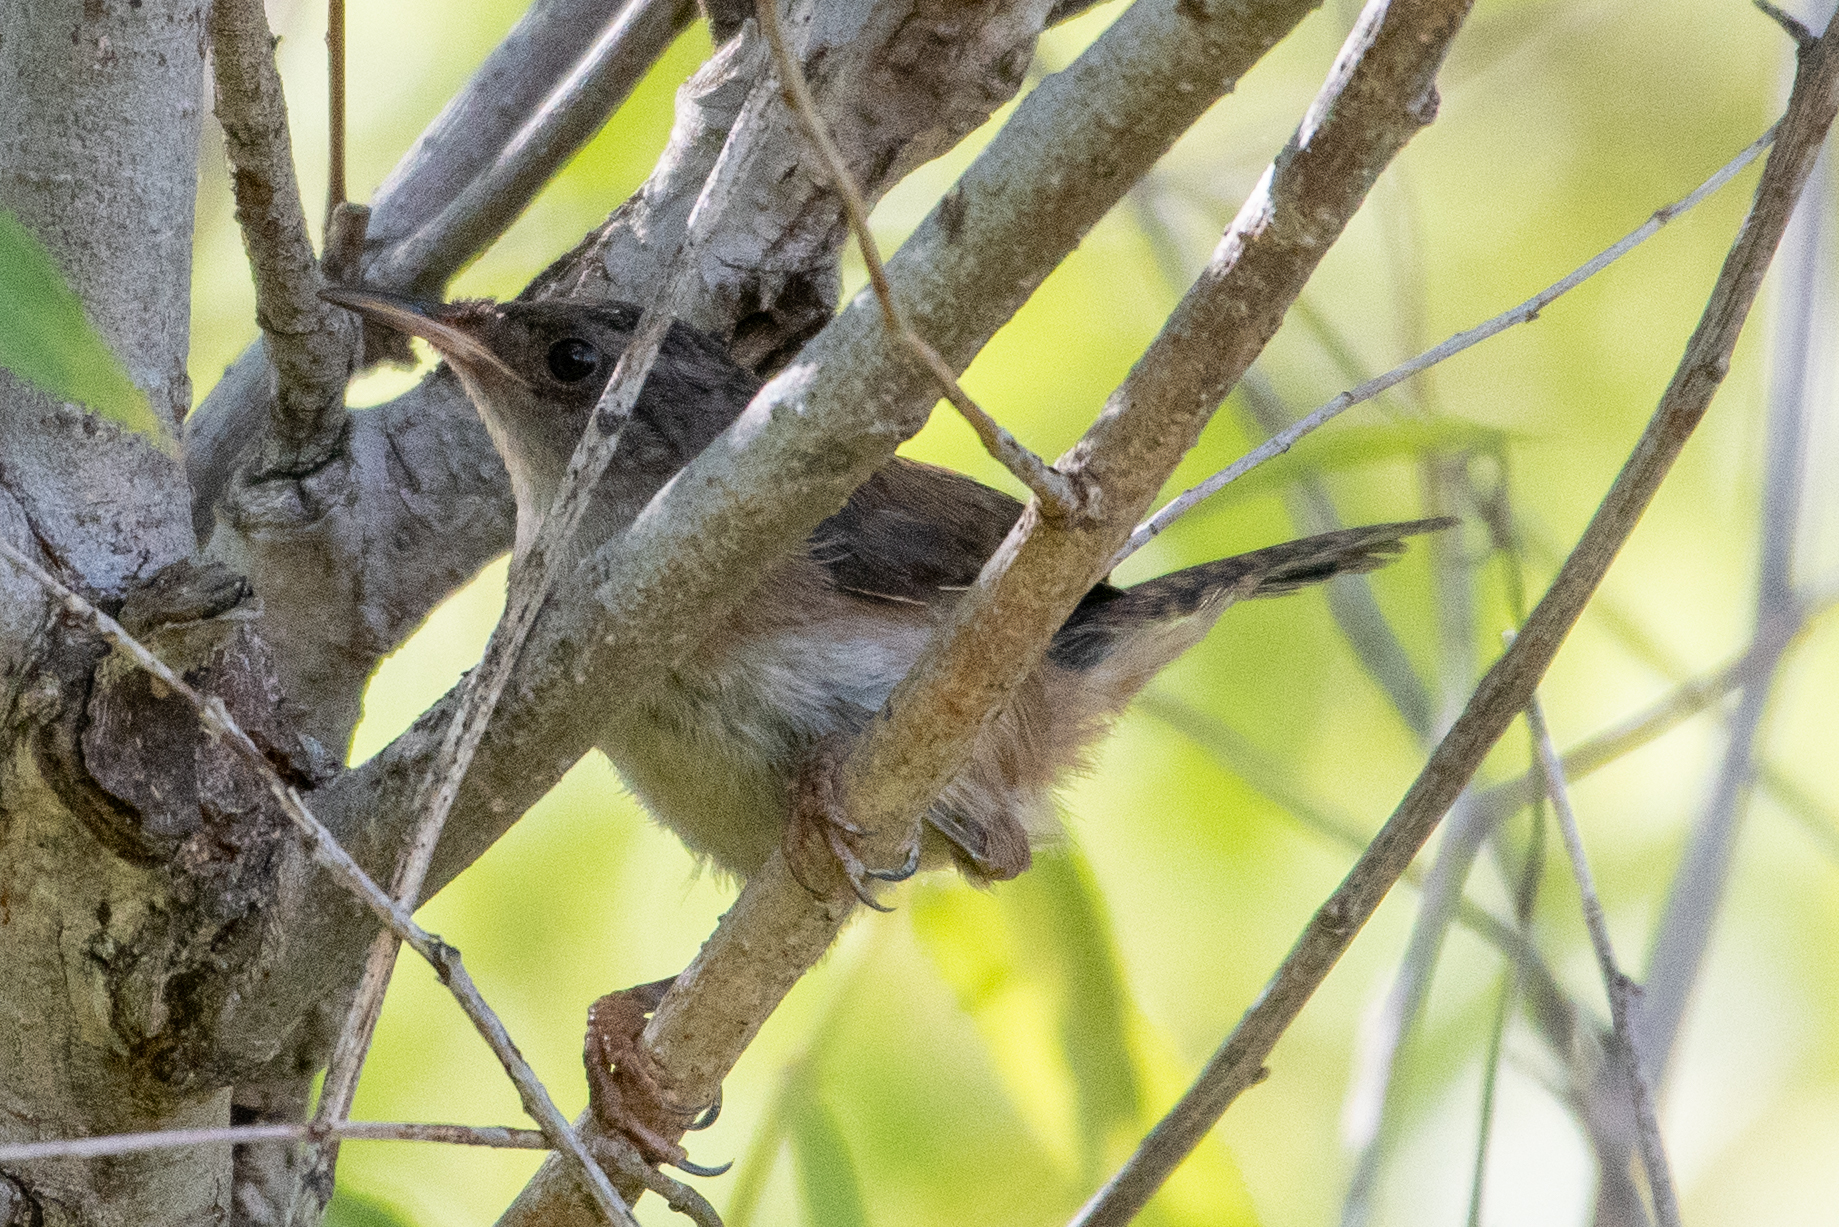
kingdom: Animalia
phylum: Chordata
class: Aves
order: Passeriformes
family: Troglodytidae
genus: Cistothorus
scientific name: Cistothorus palustris
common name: Marsh wren
